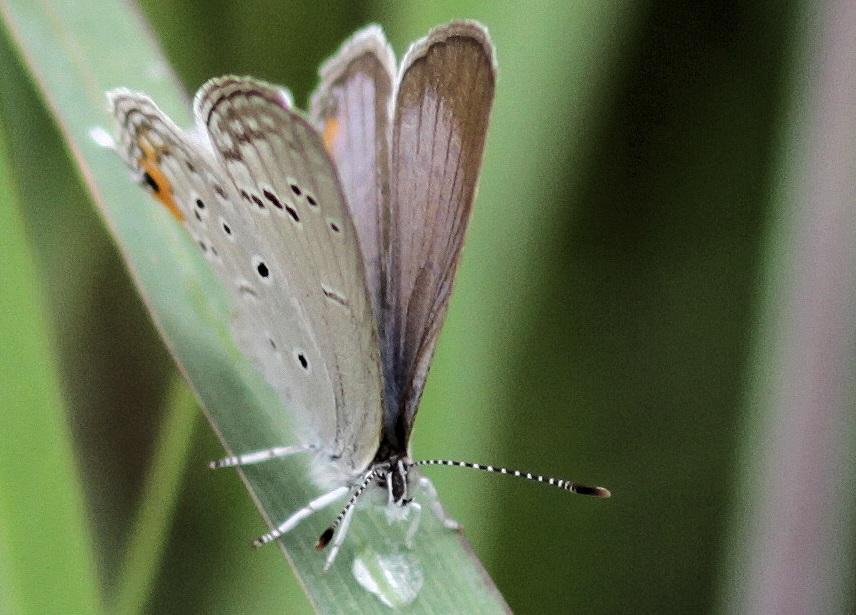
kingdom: Animalia
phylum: Arthropoda
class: Insecta
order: Lepidoptera
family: Lycaenidae
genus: Cupidopsis
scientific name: Cupidopsis jobates
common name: Tailed meadow blue
